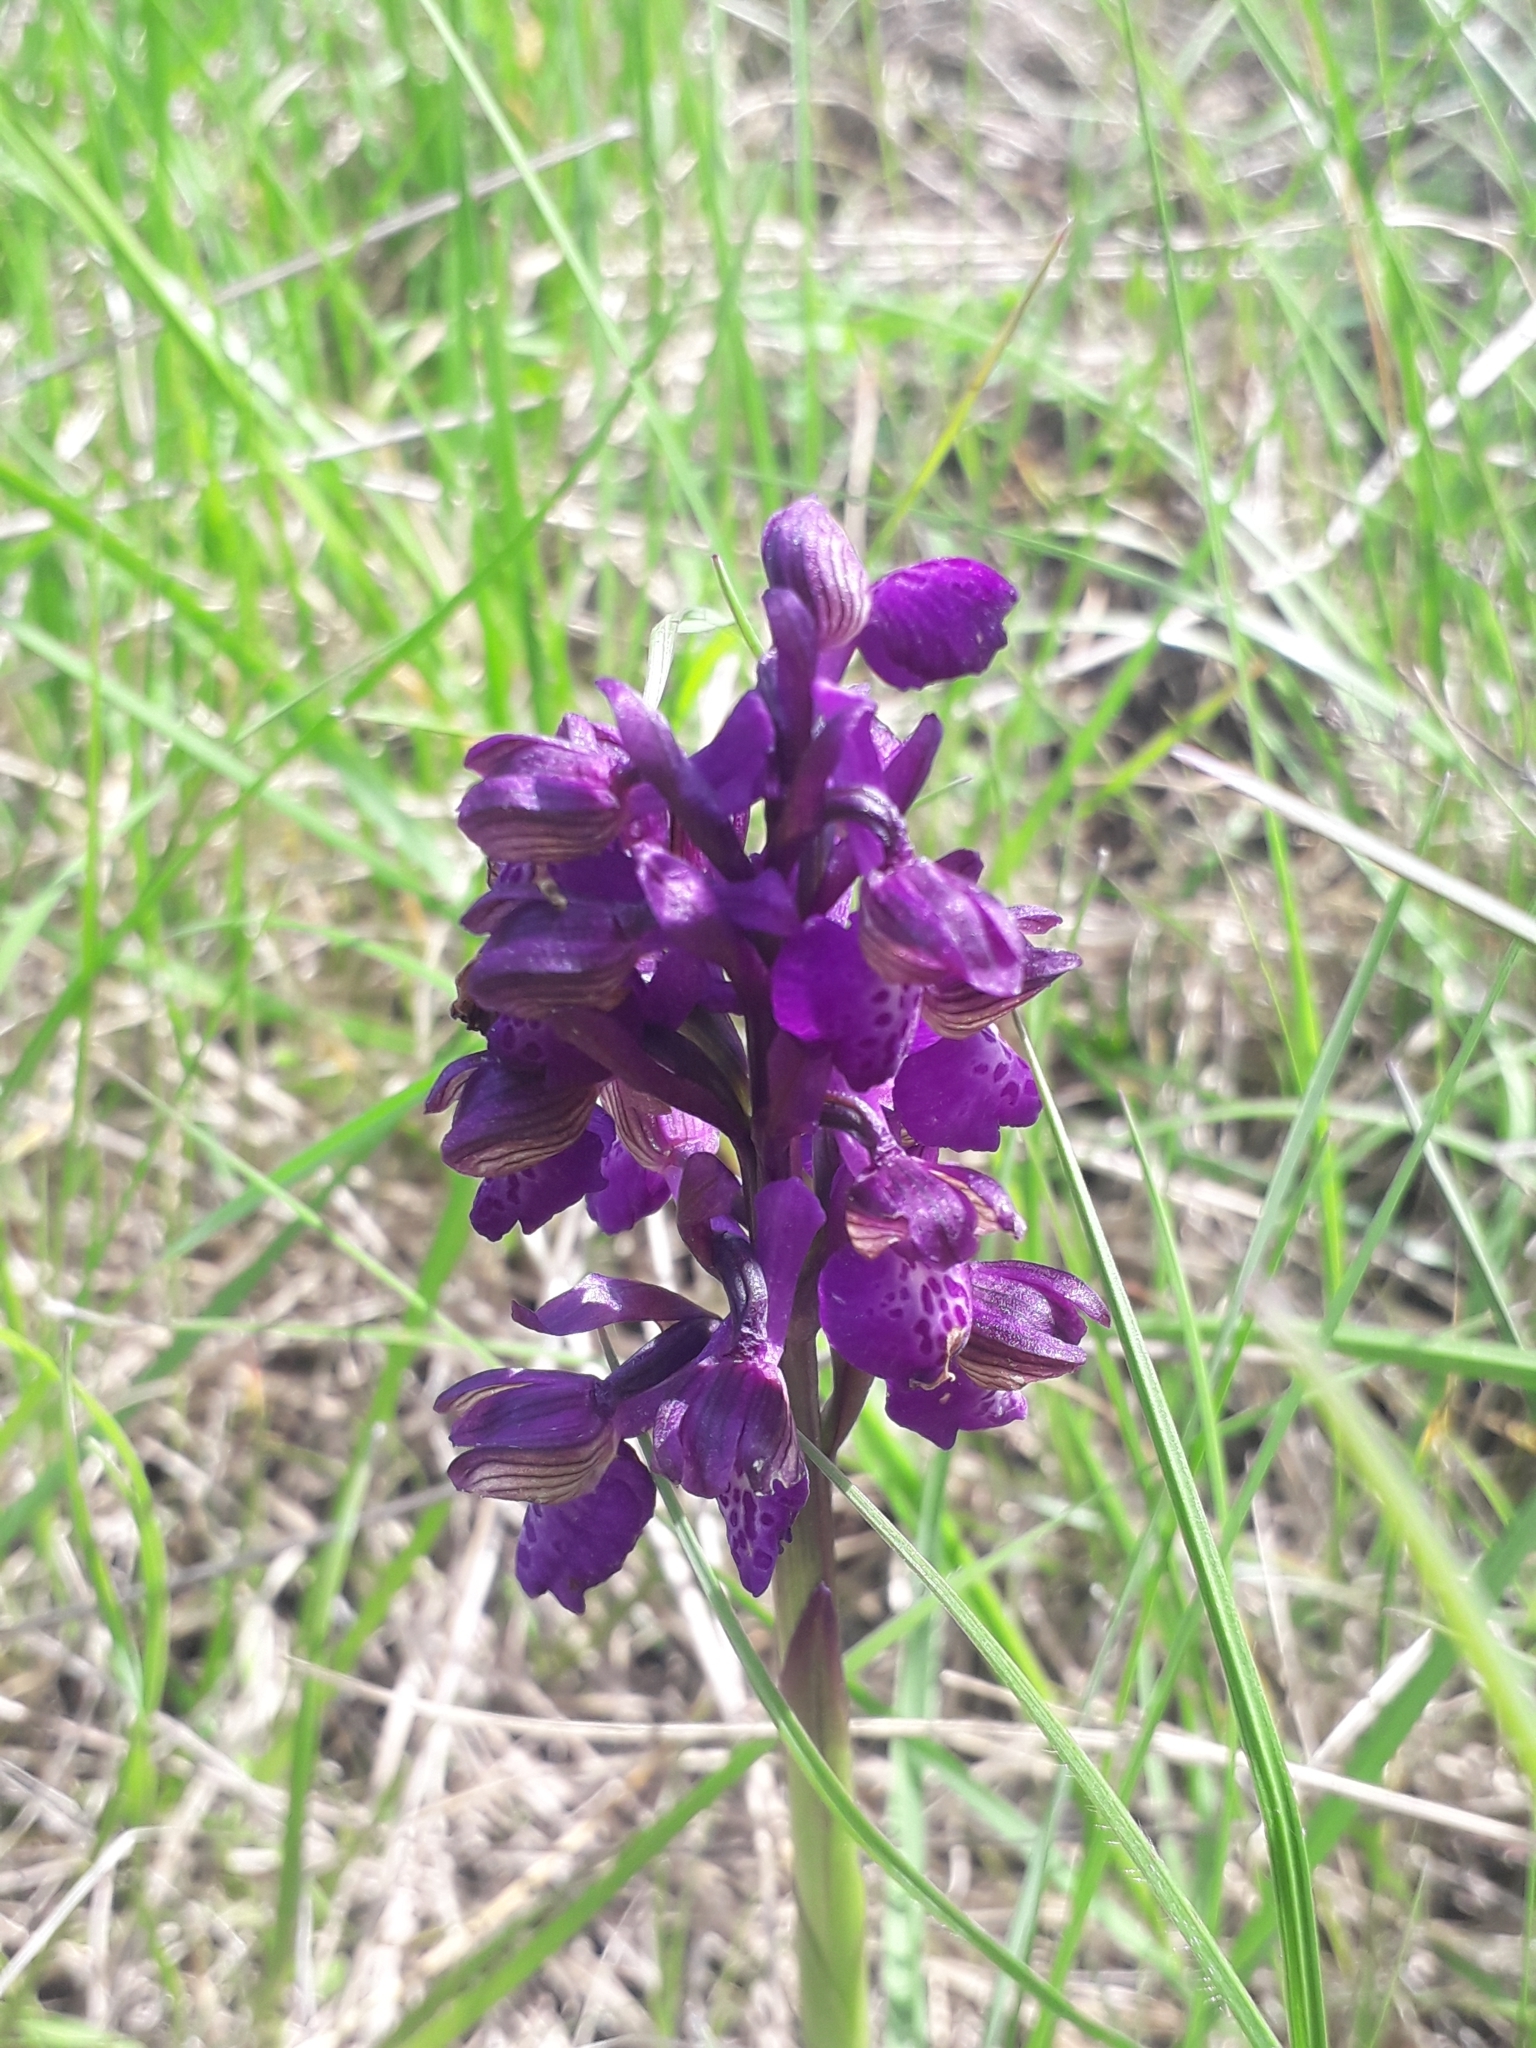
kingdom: Plantae
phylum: Tracheophyta
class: Liliopsida
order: Asparagales
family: Orchidaceae
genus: Anacamptis
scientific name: Anacamptis morio
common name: Green-winged orchid
